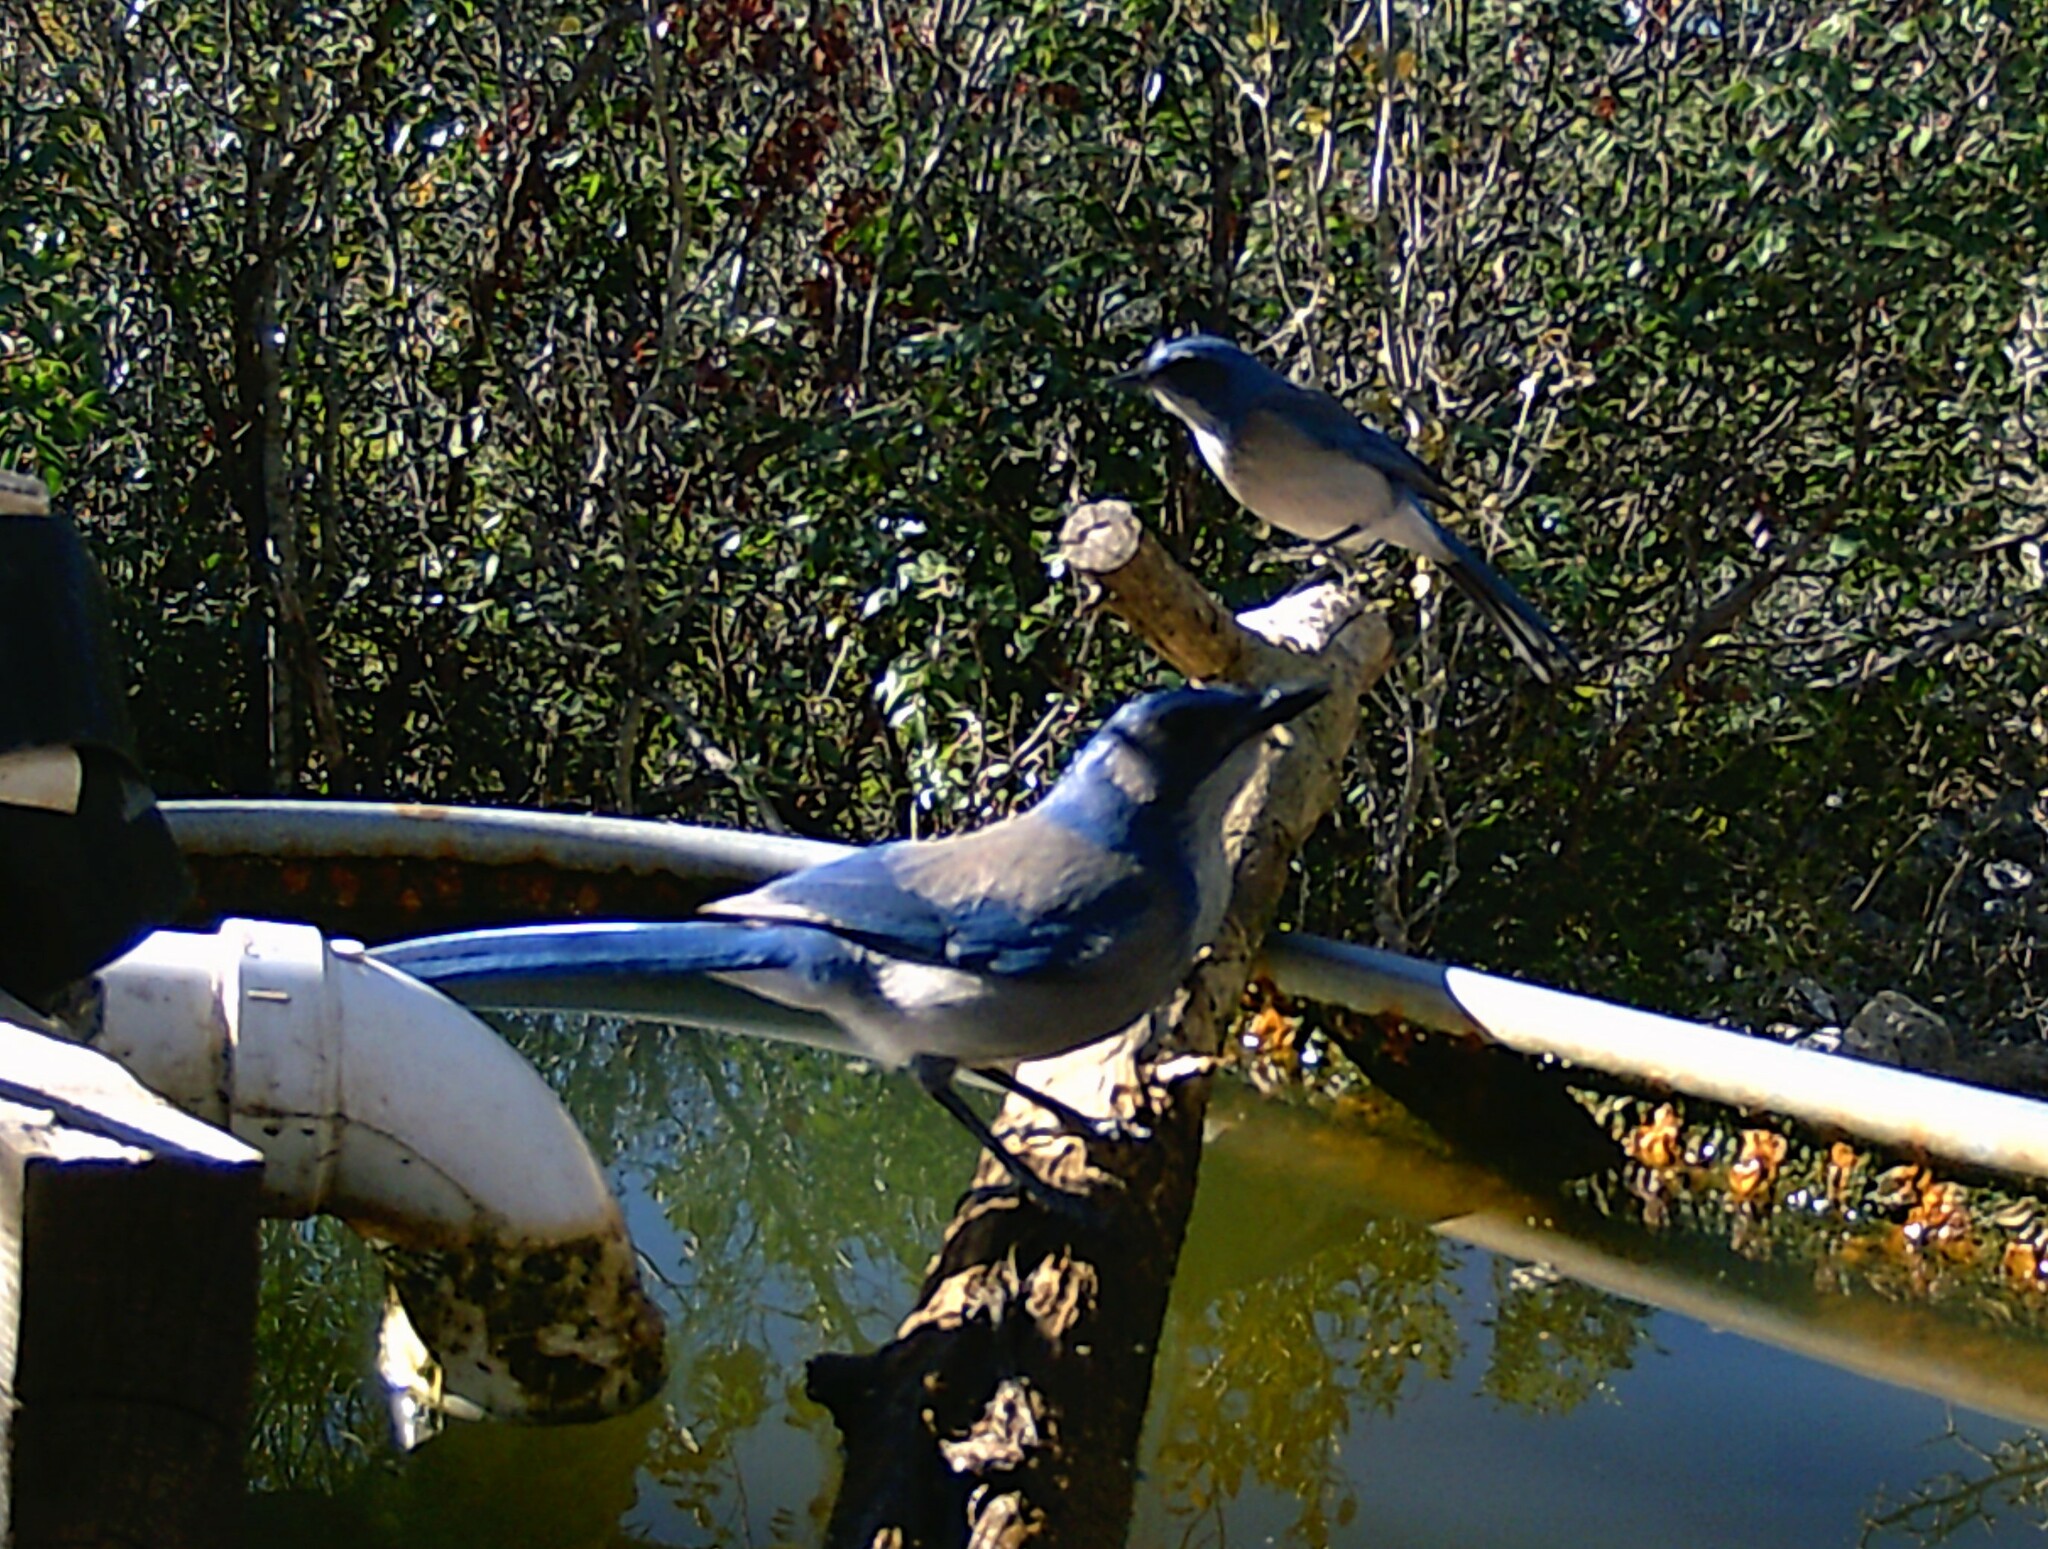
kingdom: Animalia
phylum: Chordata
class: Aves
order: Passeriformes
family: Corvidae
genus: Aphelocoma
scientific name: Aphelocoma woodhouseii
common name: Woodhouse's scrub-jay
